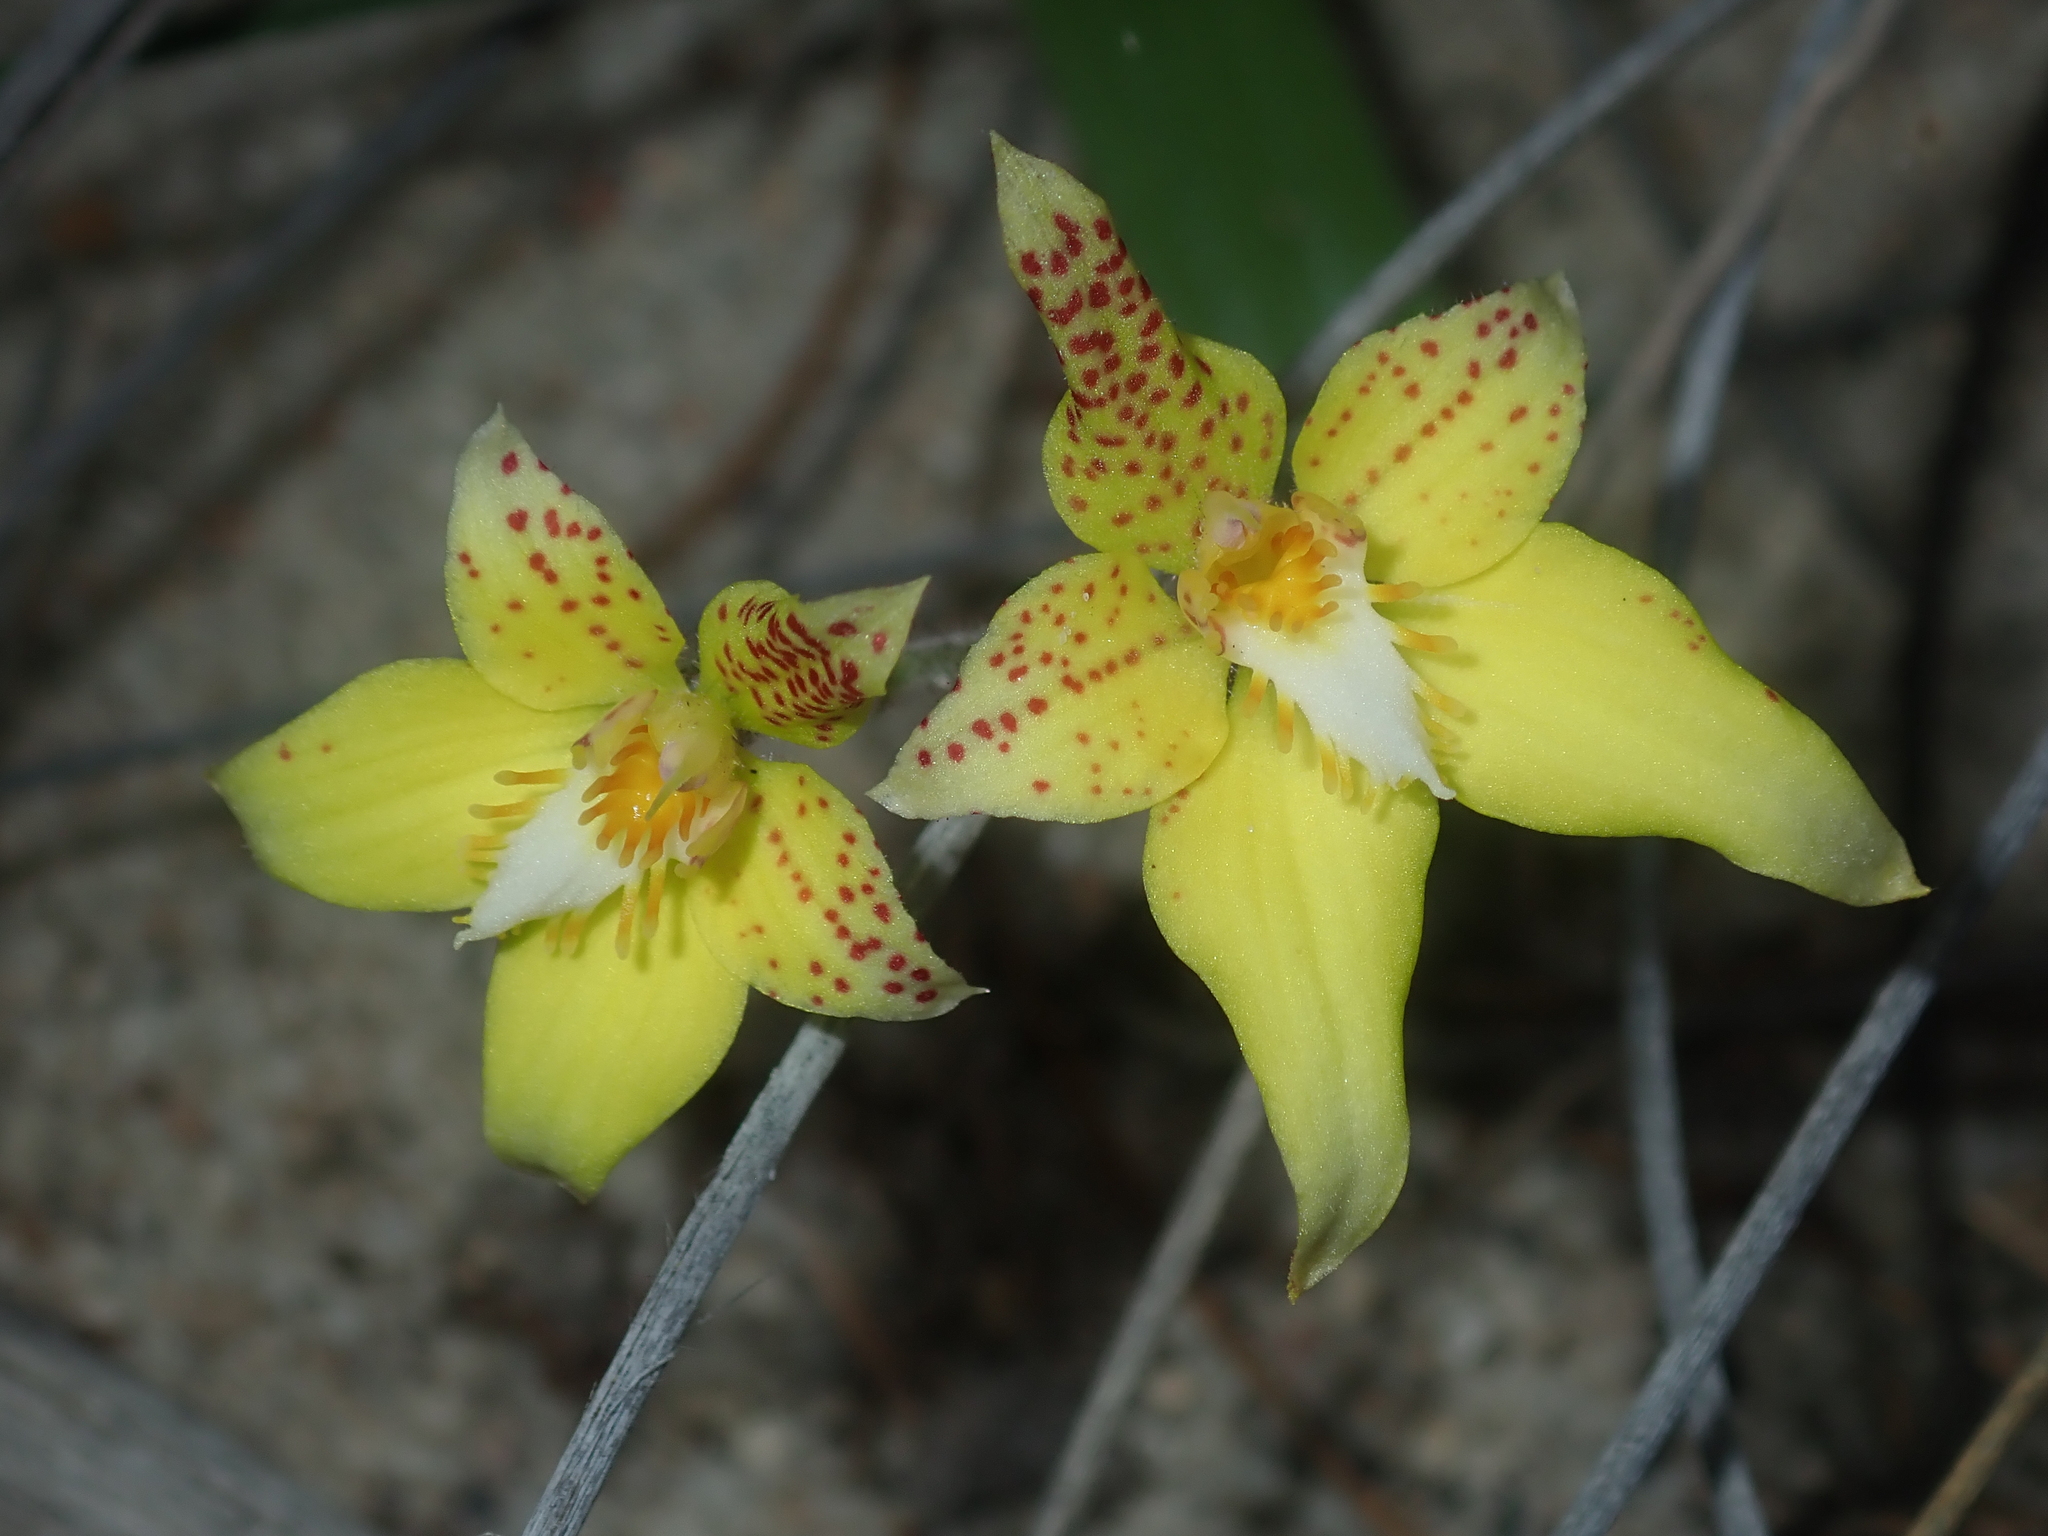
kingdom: Plantae
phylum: Tracheophyta
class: Liliopsida
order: Asparagales
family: Orchidaceae
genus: Caladenia
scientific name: Caladenia flava
